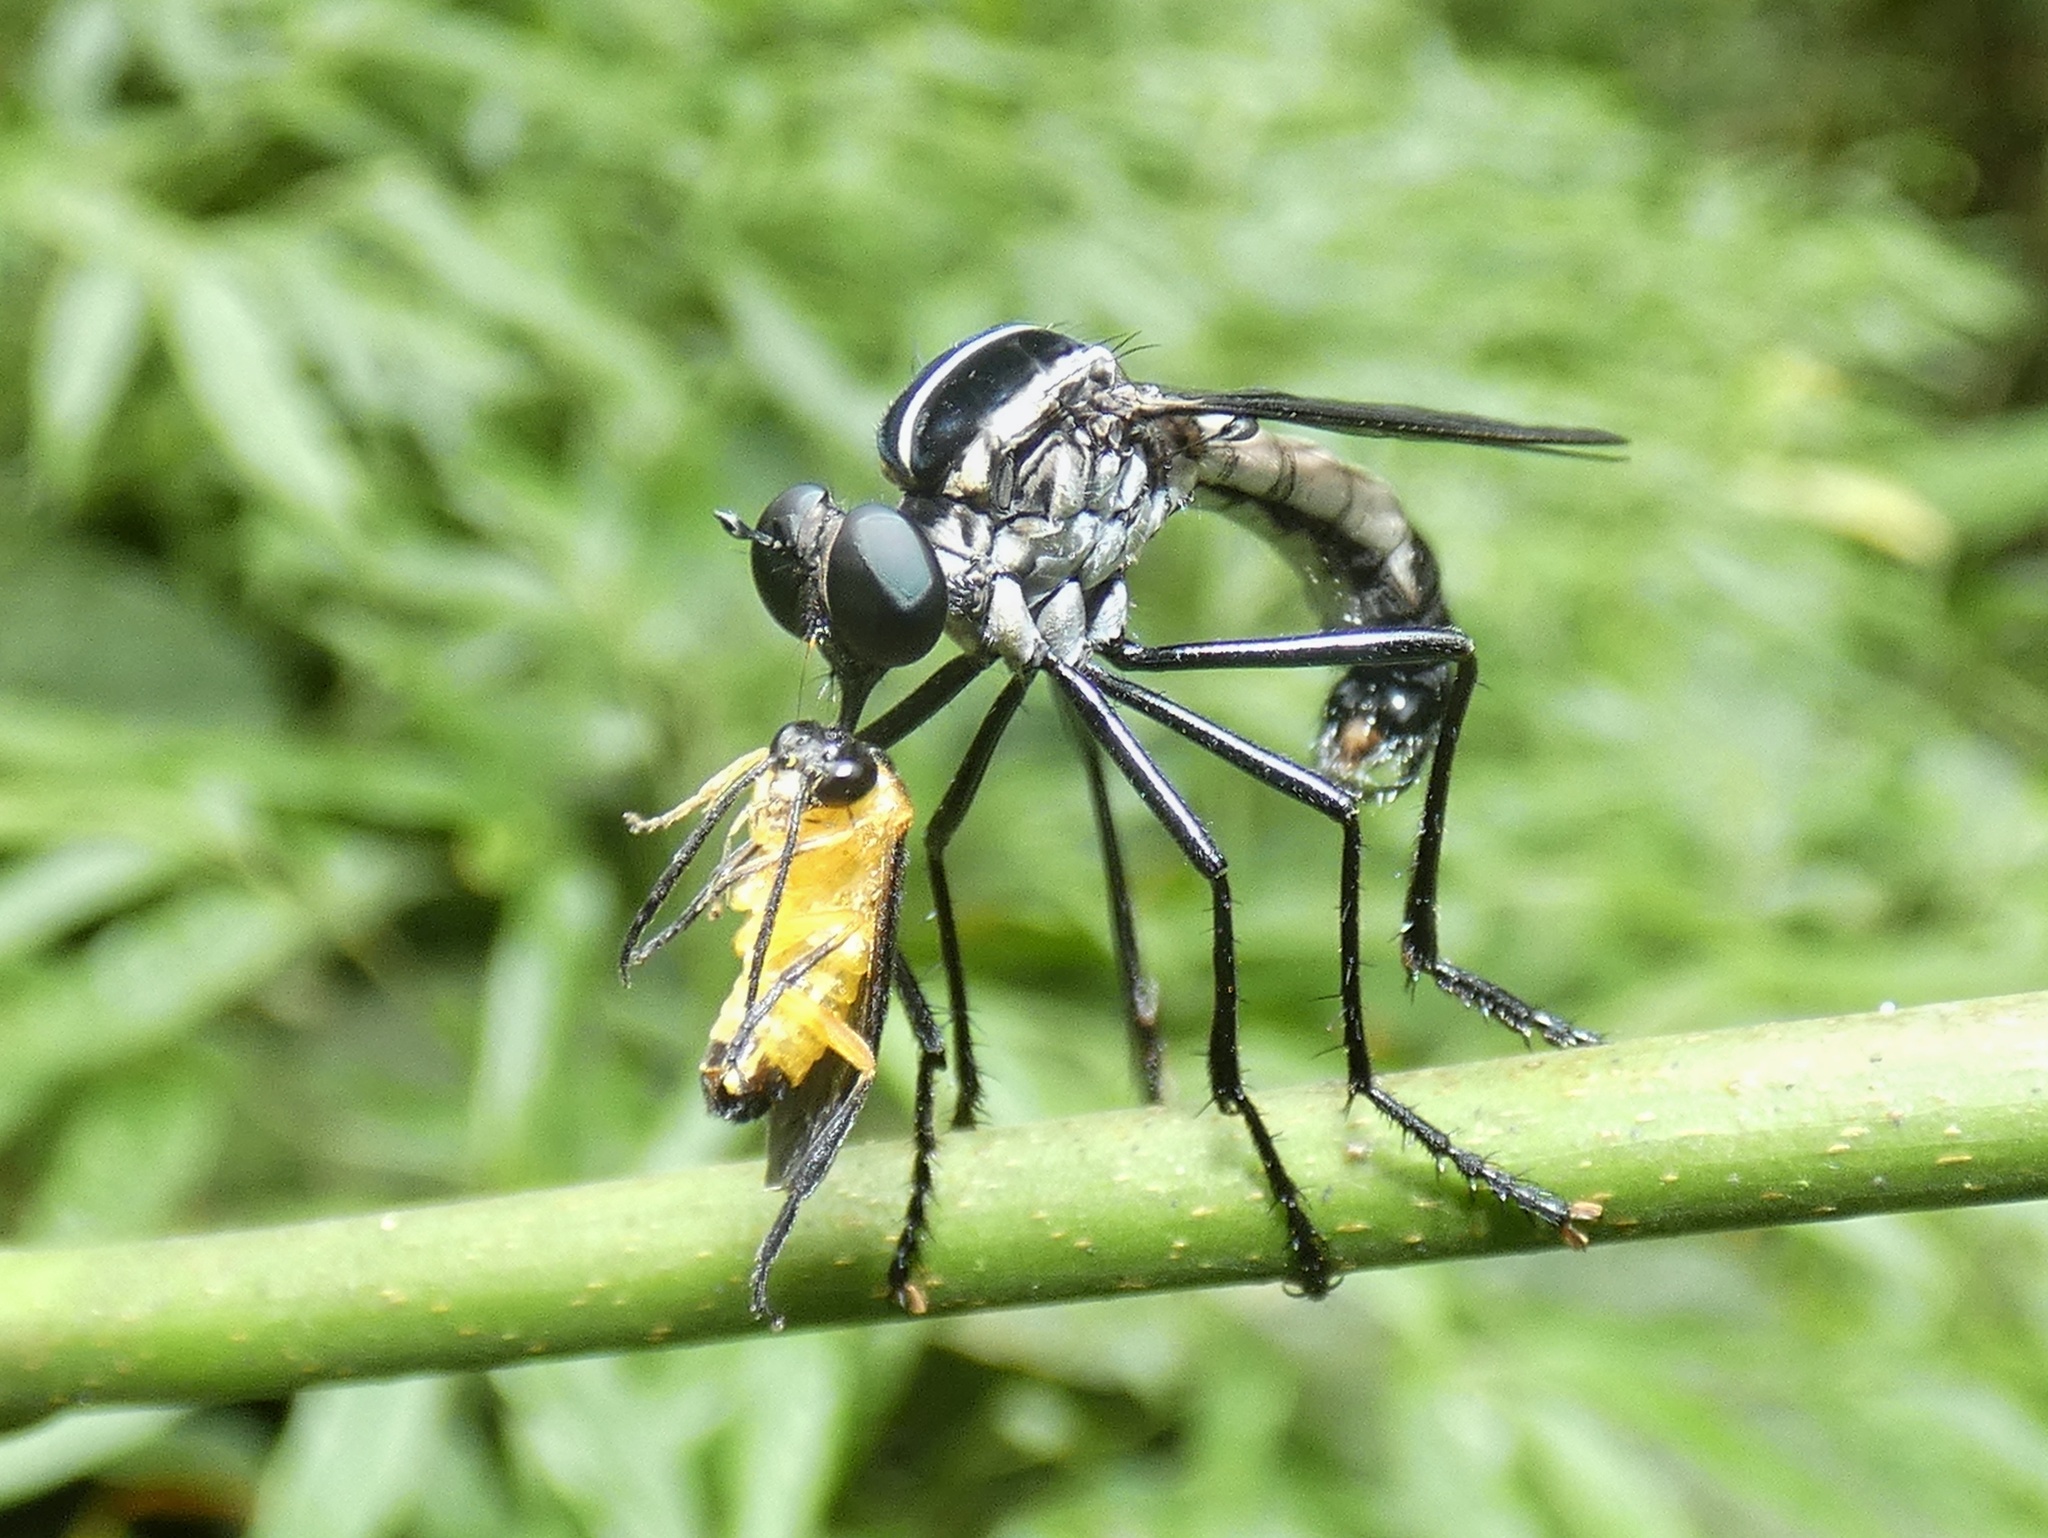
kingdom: Animalia
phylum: Arthropoda
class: Insecta
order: Diptera
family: Asilidae
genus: Senobasis
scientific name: Senobasis corsair
